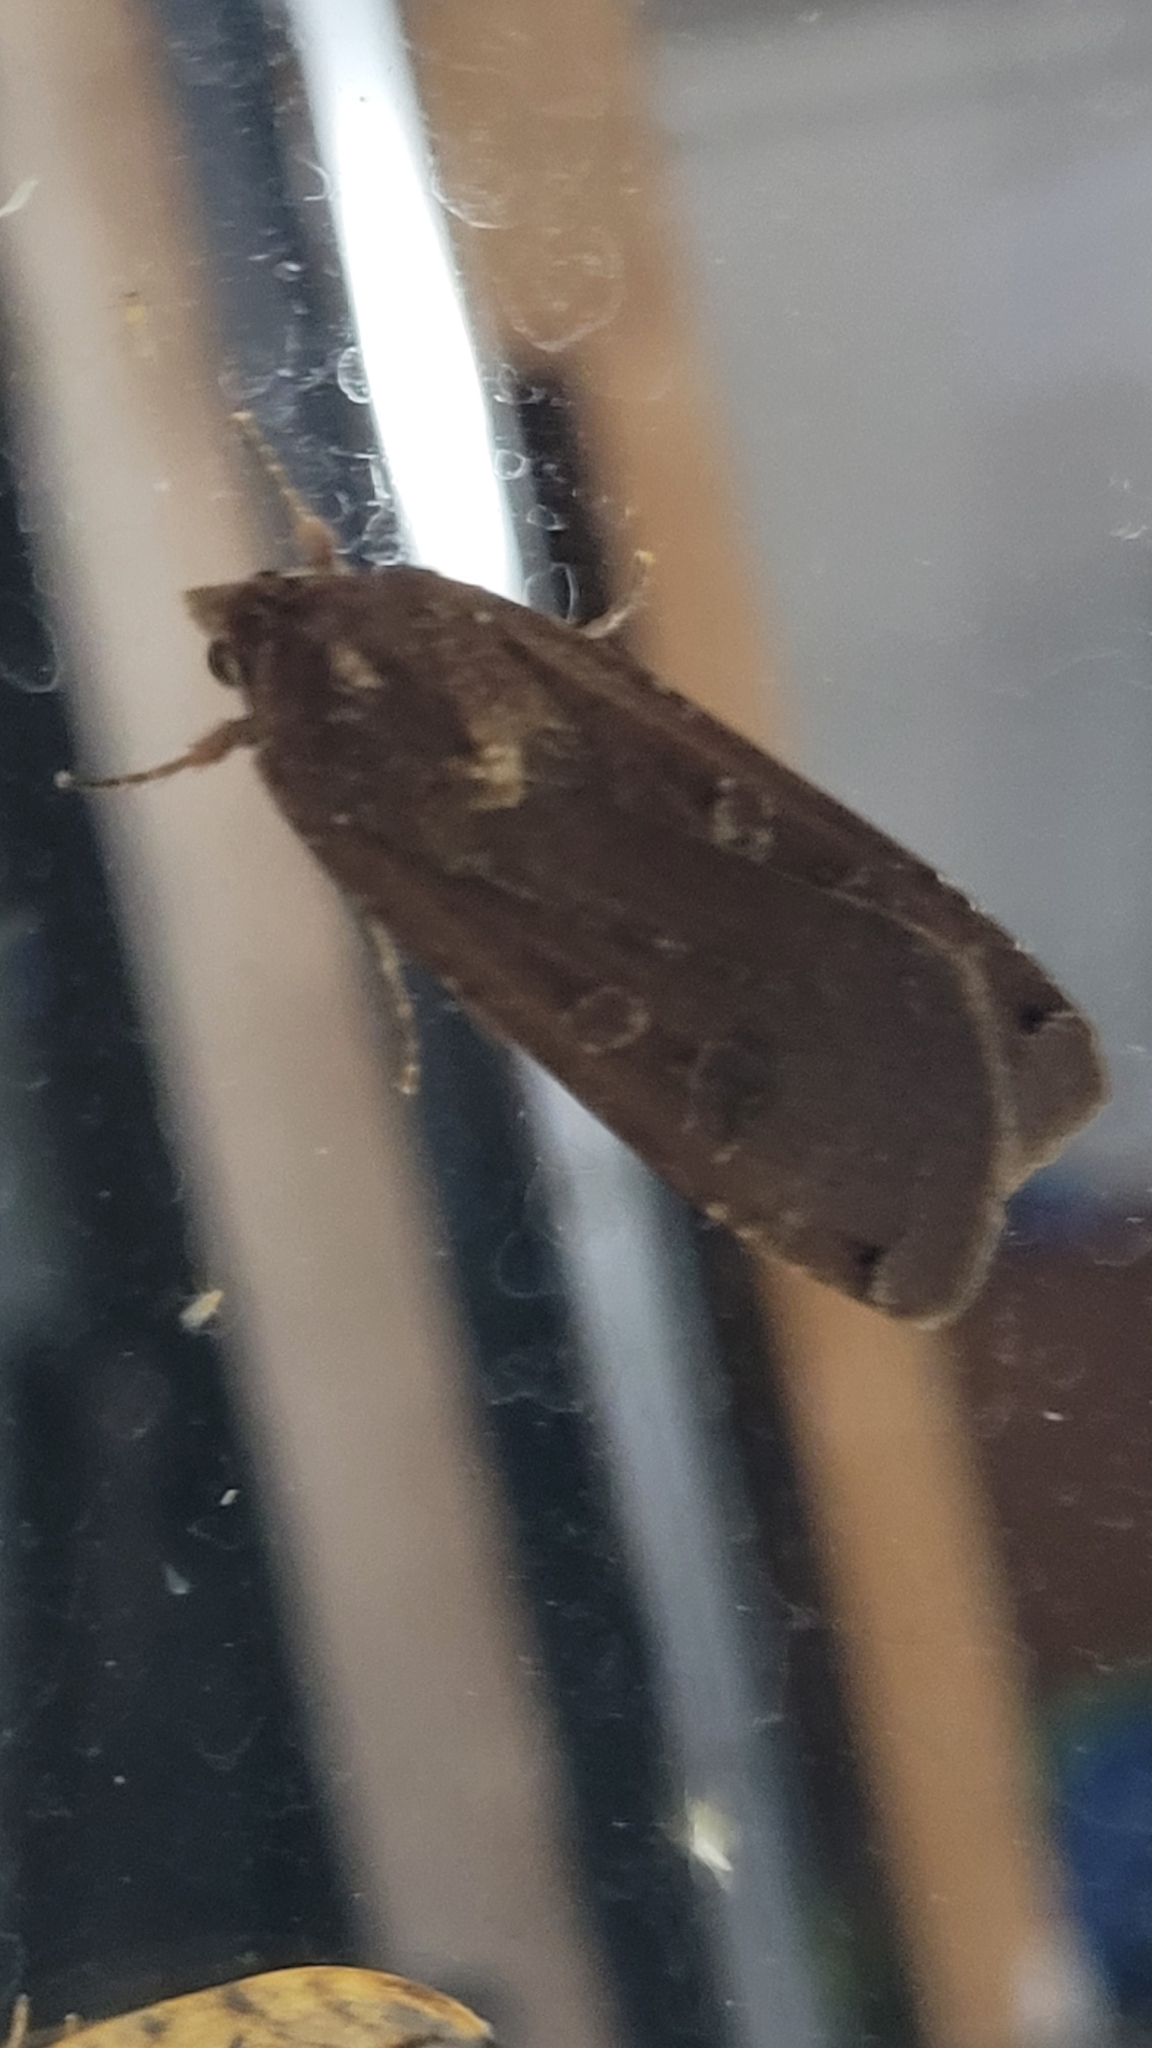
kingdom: Animalia
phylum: Arthropoda
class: Insecta
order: Lepidoptera
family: Noctuidae
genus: Noctua
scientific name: Noctua pronuba
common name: Large yellow underwing
